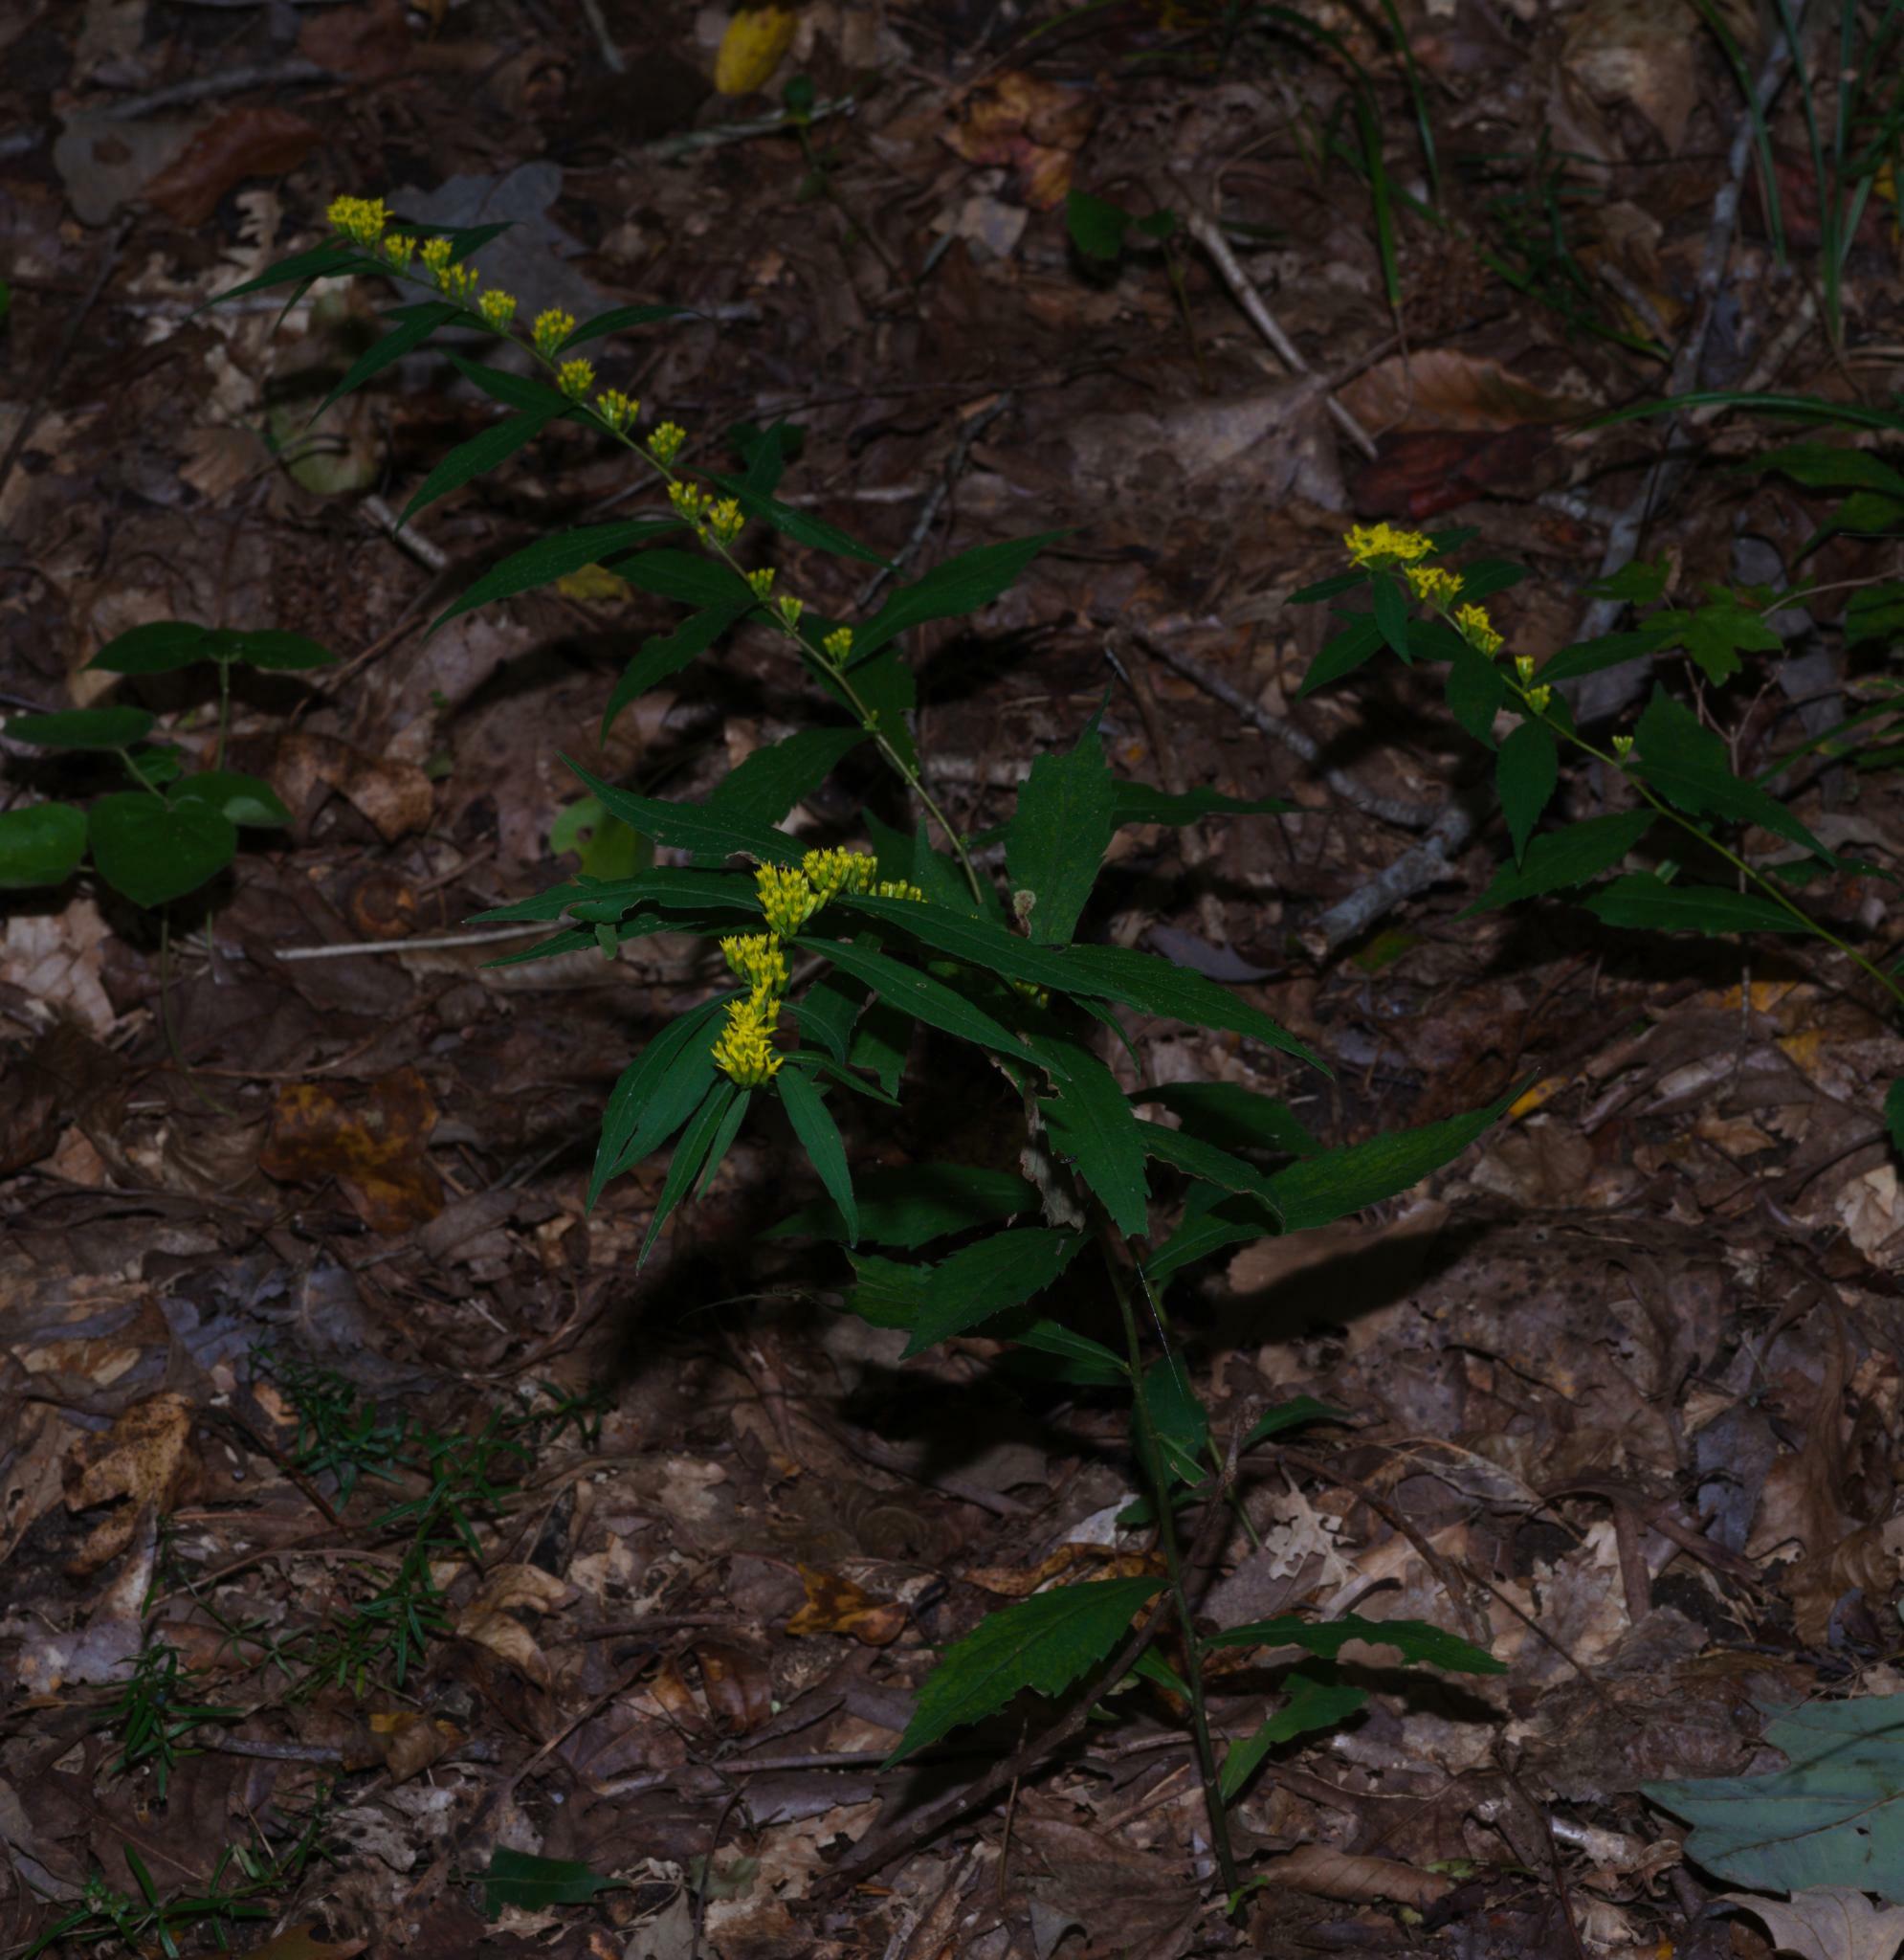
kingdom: Plantae
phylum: Tracheophyta
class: Magnoliopsida
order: Asterales
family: Asteraceae
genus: Solidago
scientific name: Solidago caesia
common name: Woodland goldenrod
